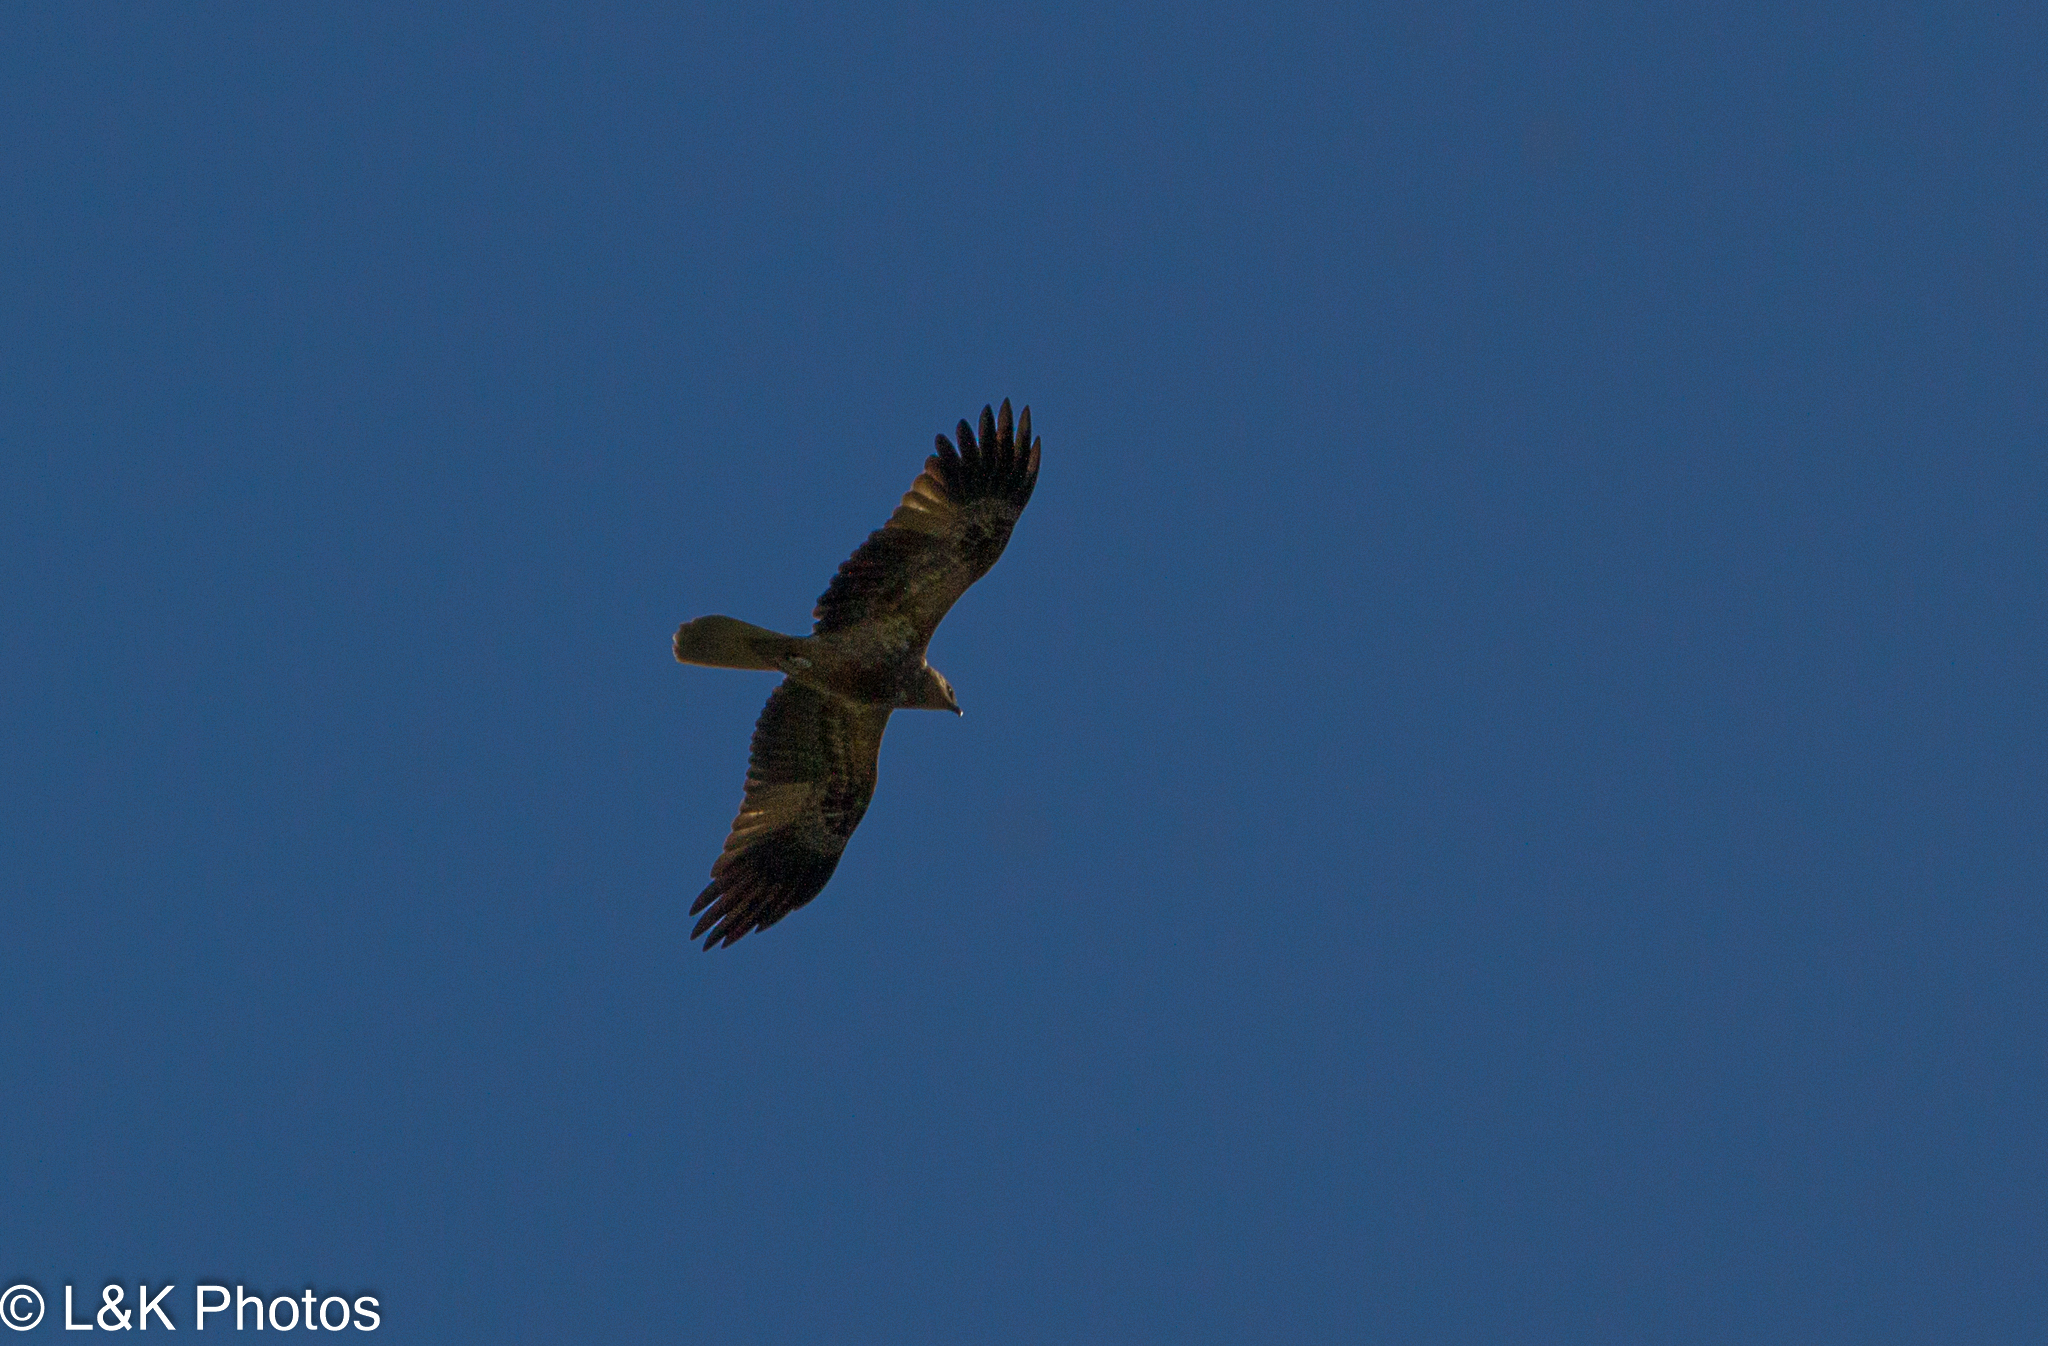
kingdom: Animalia
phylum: Chordata
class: Aves
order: Accipitriformes
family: Accipitridae
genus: Haliastur
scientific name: Haliastur sphenurus
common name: Whistling kite
